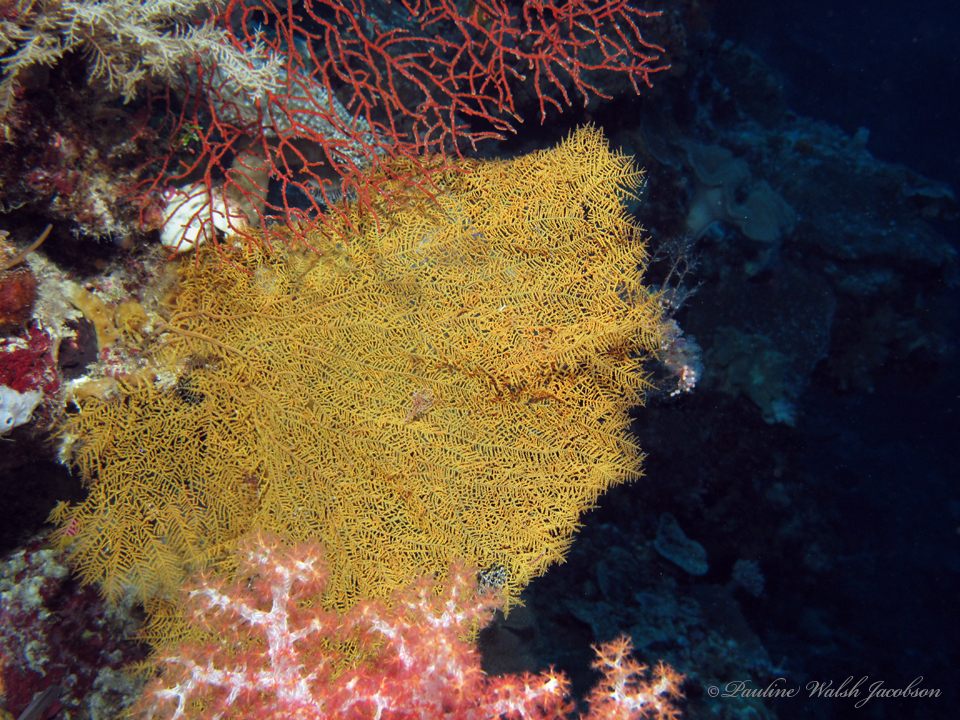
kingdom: Animalia
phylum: Cnidaria
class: Anthozoa
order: Antipatharia
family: Aphanipathidae
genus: Rhipidipathes
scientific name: Rhipidipathes reticulata
